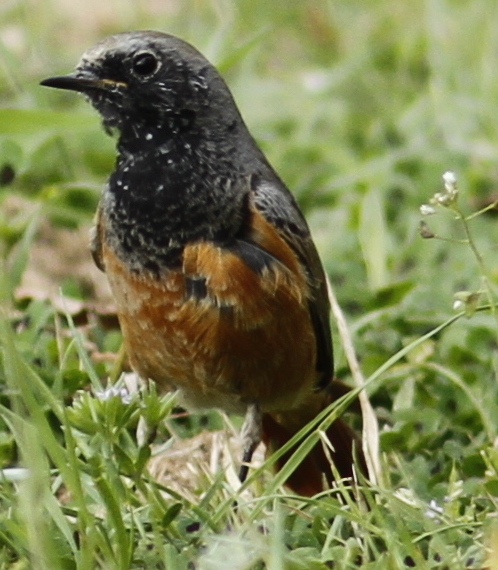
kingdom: Animalia
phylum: Chordata
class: Aves
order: Passeriformes
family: Muscicapidae
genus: Phoenicurus
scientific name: Phoenicurus ochruros
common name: Black redstart
